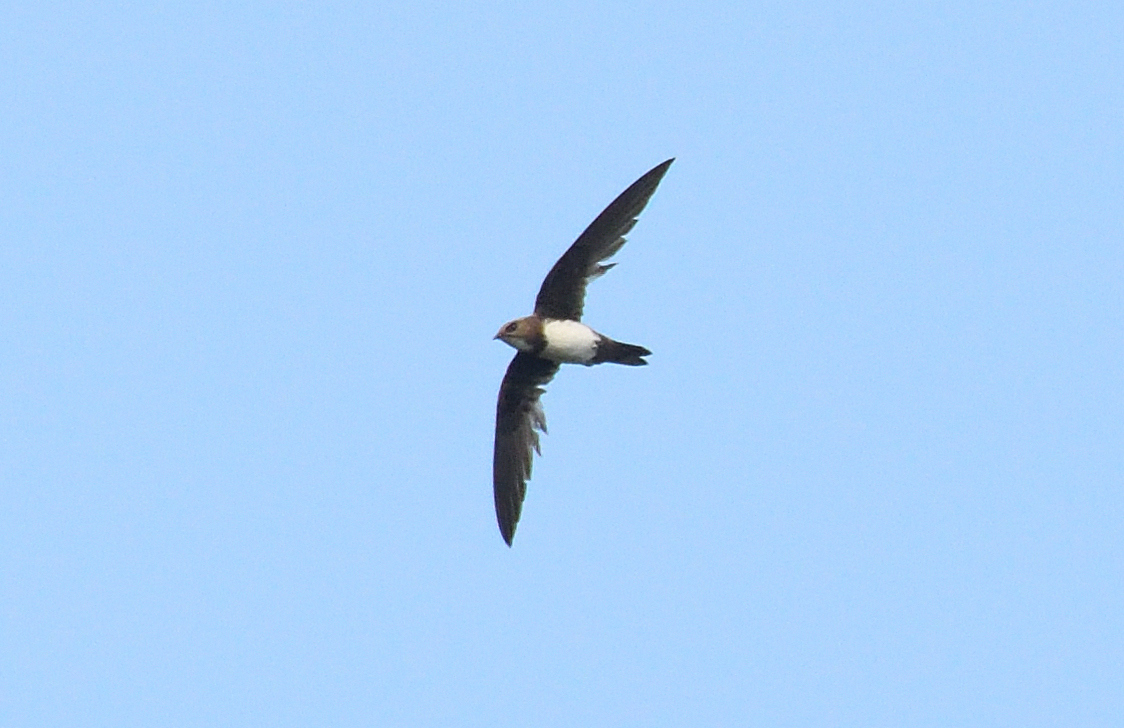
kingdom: Animalia
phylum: Chordata
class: Aves
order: Apodiformes
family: Apodidae
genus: Tachymarptis
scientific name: Tachymarptis melba
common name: Alpine swift
